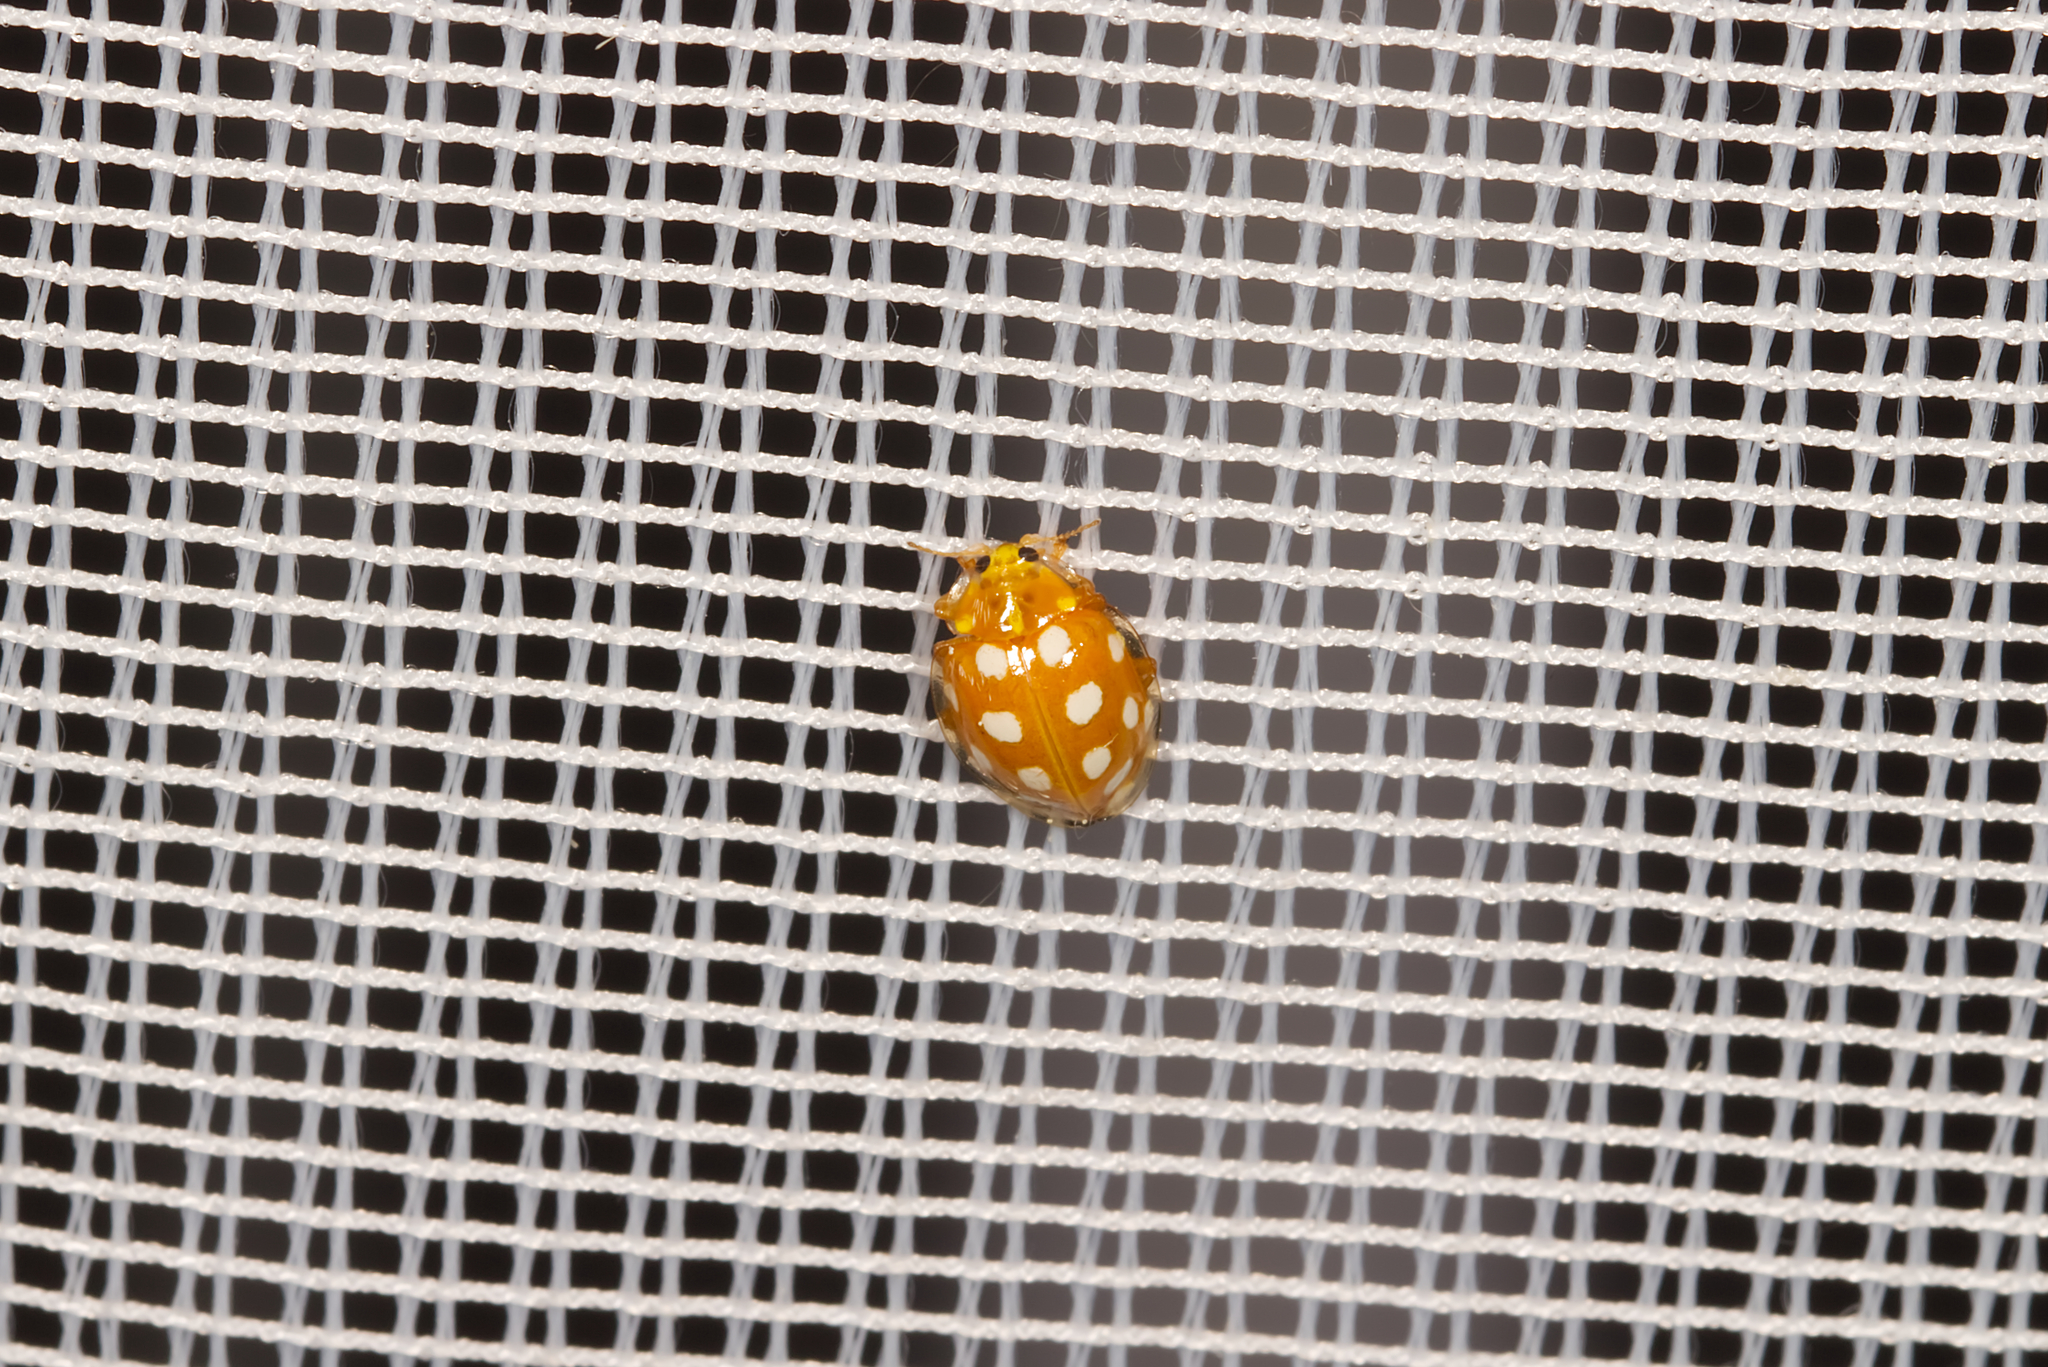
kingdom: Animalia
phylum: Arthropoda
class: Insecta
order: Coleoptera
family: Coccinellidae
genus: Halyzia
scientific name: Halyzia sedecimguttata
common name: Orange ladybird
